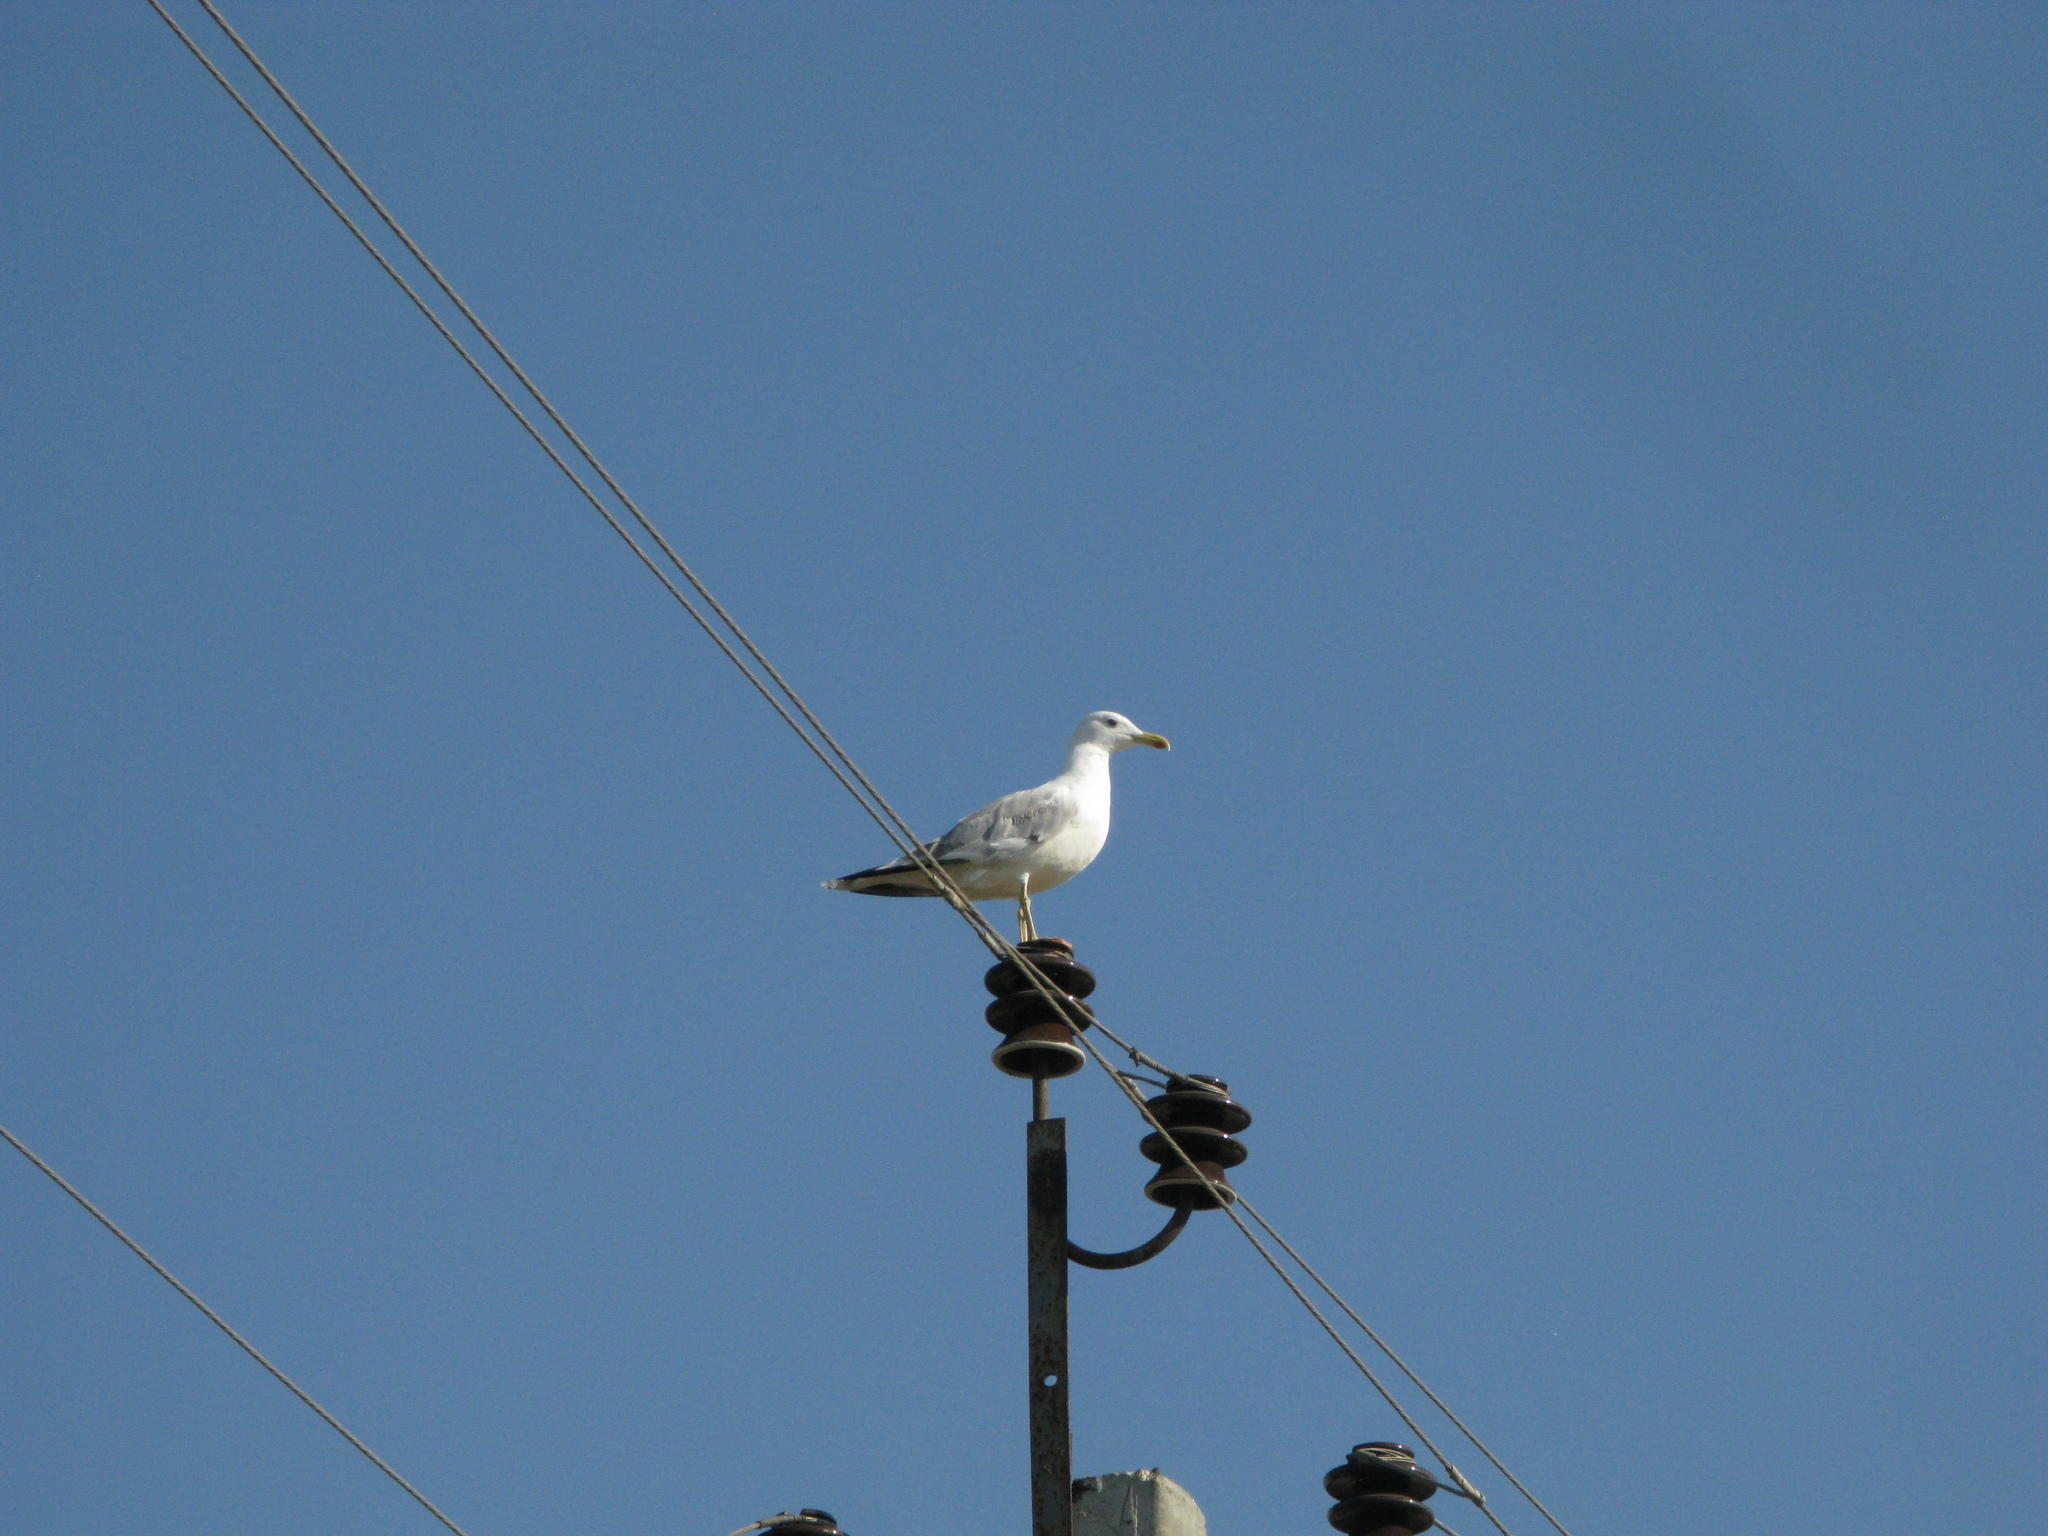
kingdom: Animalia
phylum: Chordata
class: Aves
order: Charadriiformes
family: Laridae
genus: Larus
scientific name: Larus cachinnans
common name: Caspian gull
